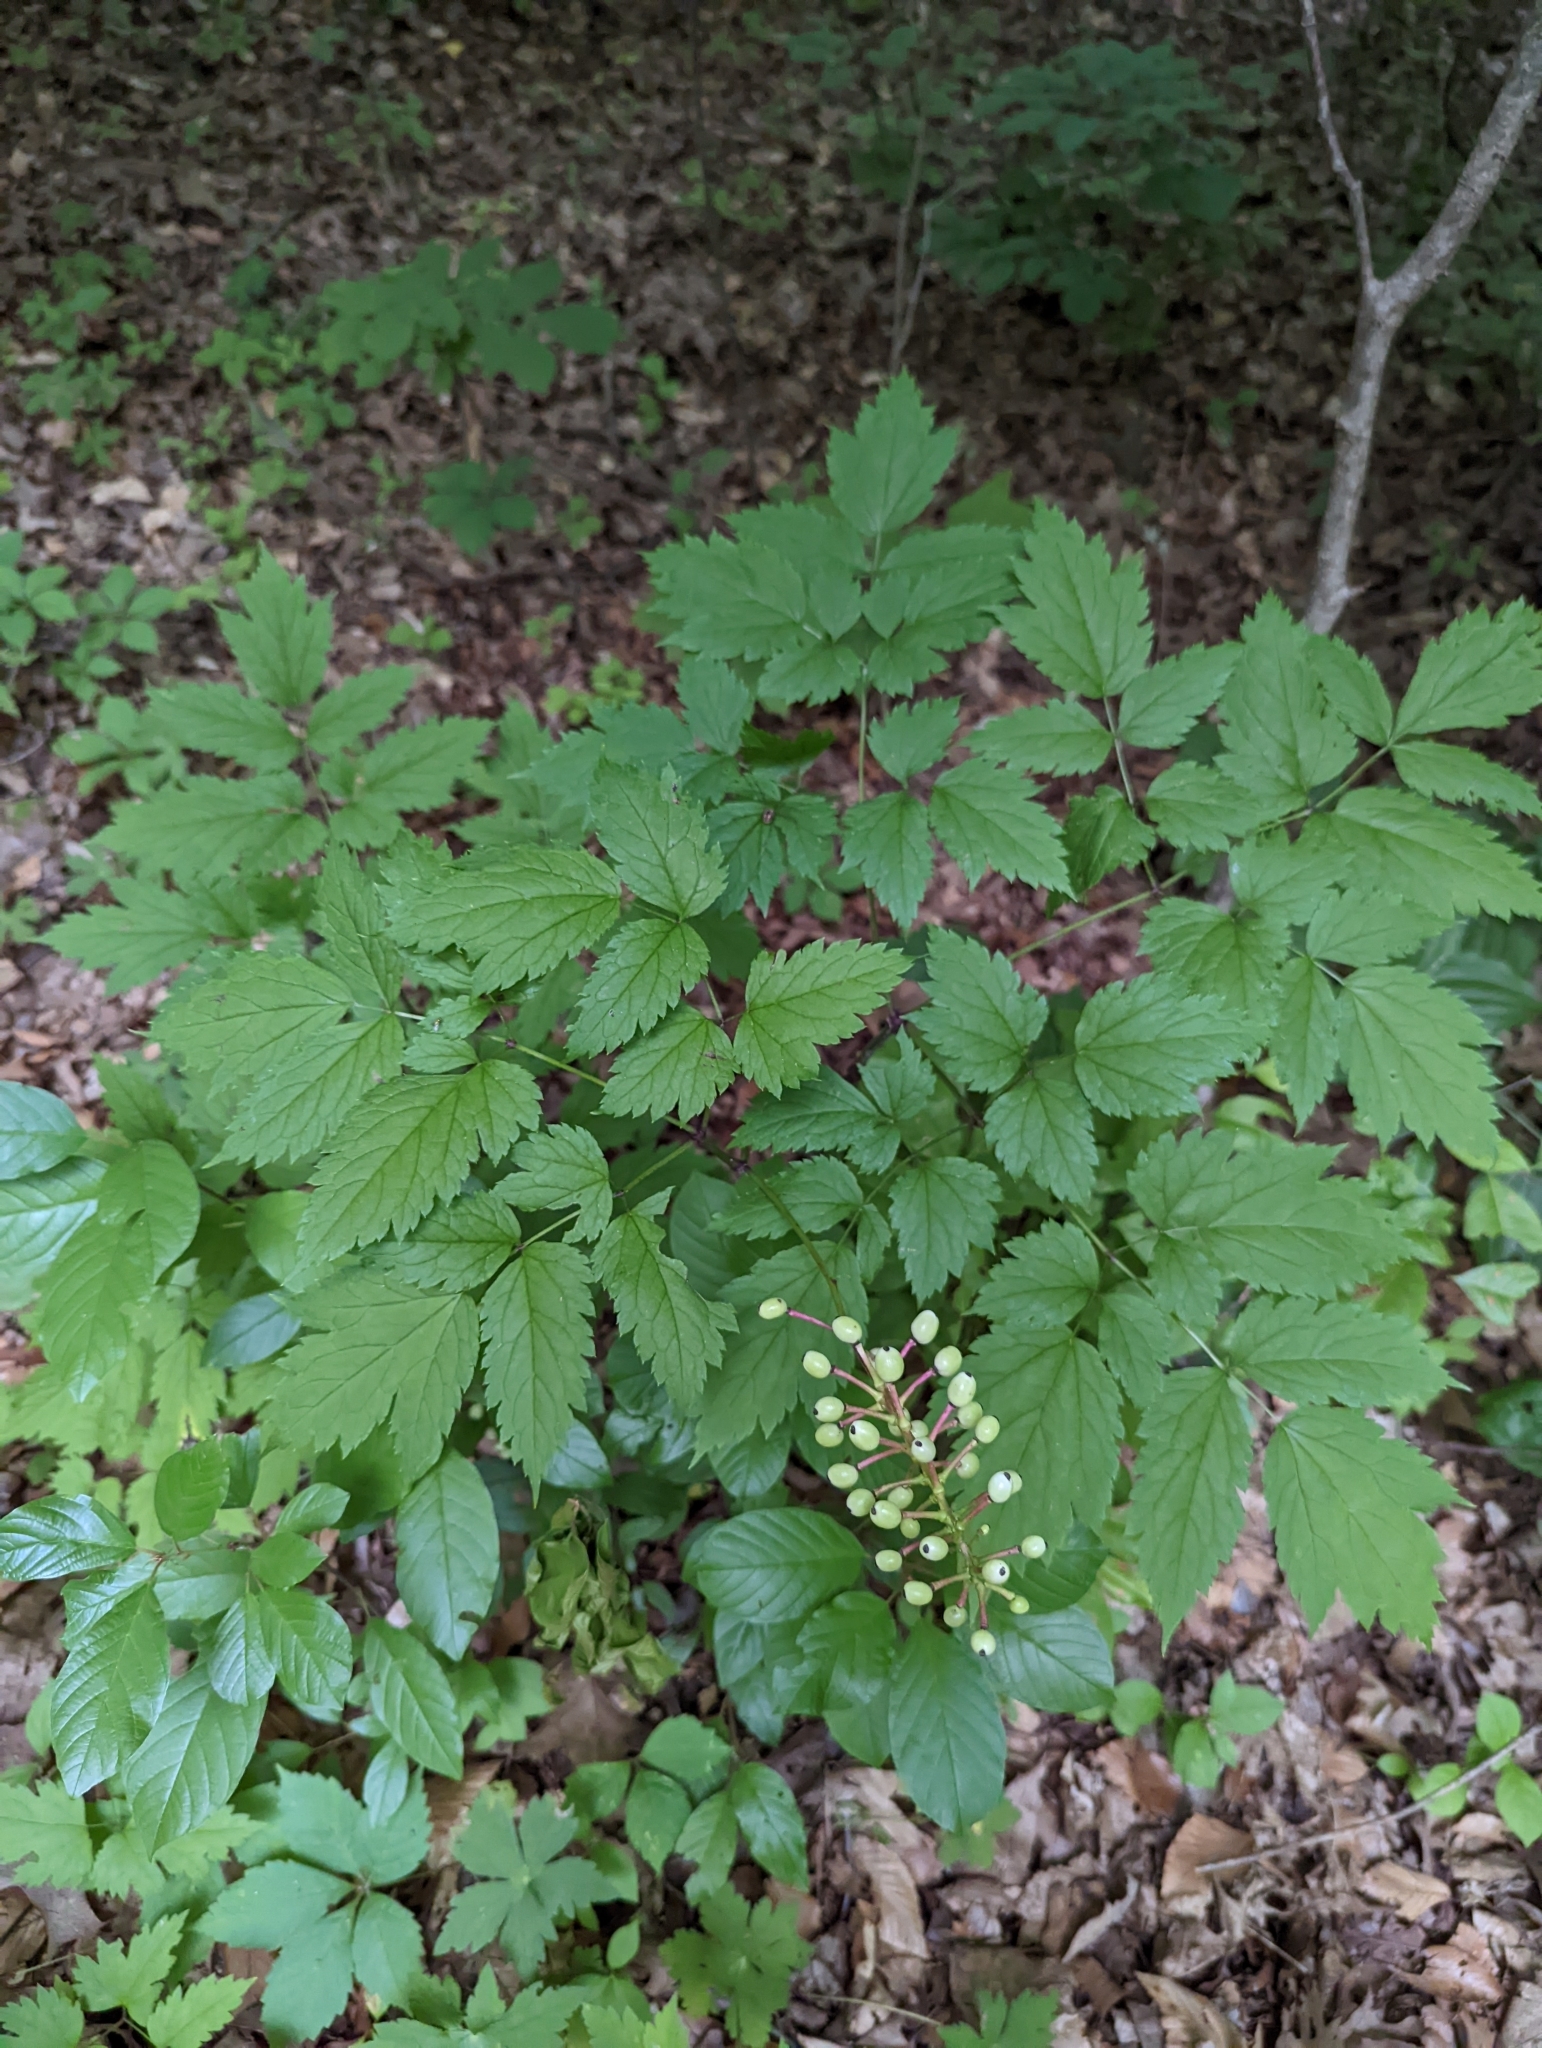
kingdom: Plantae
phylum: Tracheophyta
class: Magnoliopsida
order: Ranunculales
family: Ranunculaceae
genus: Actaea
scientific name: Actaea pachypoda
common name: Doll's-eyes
